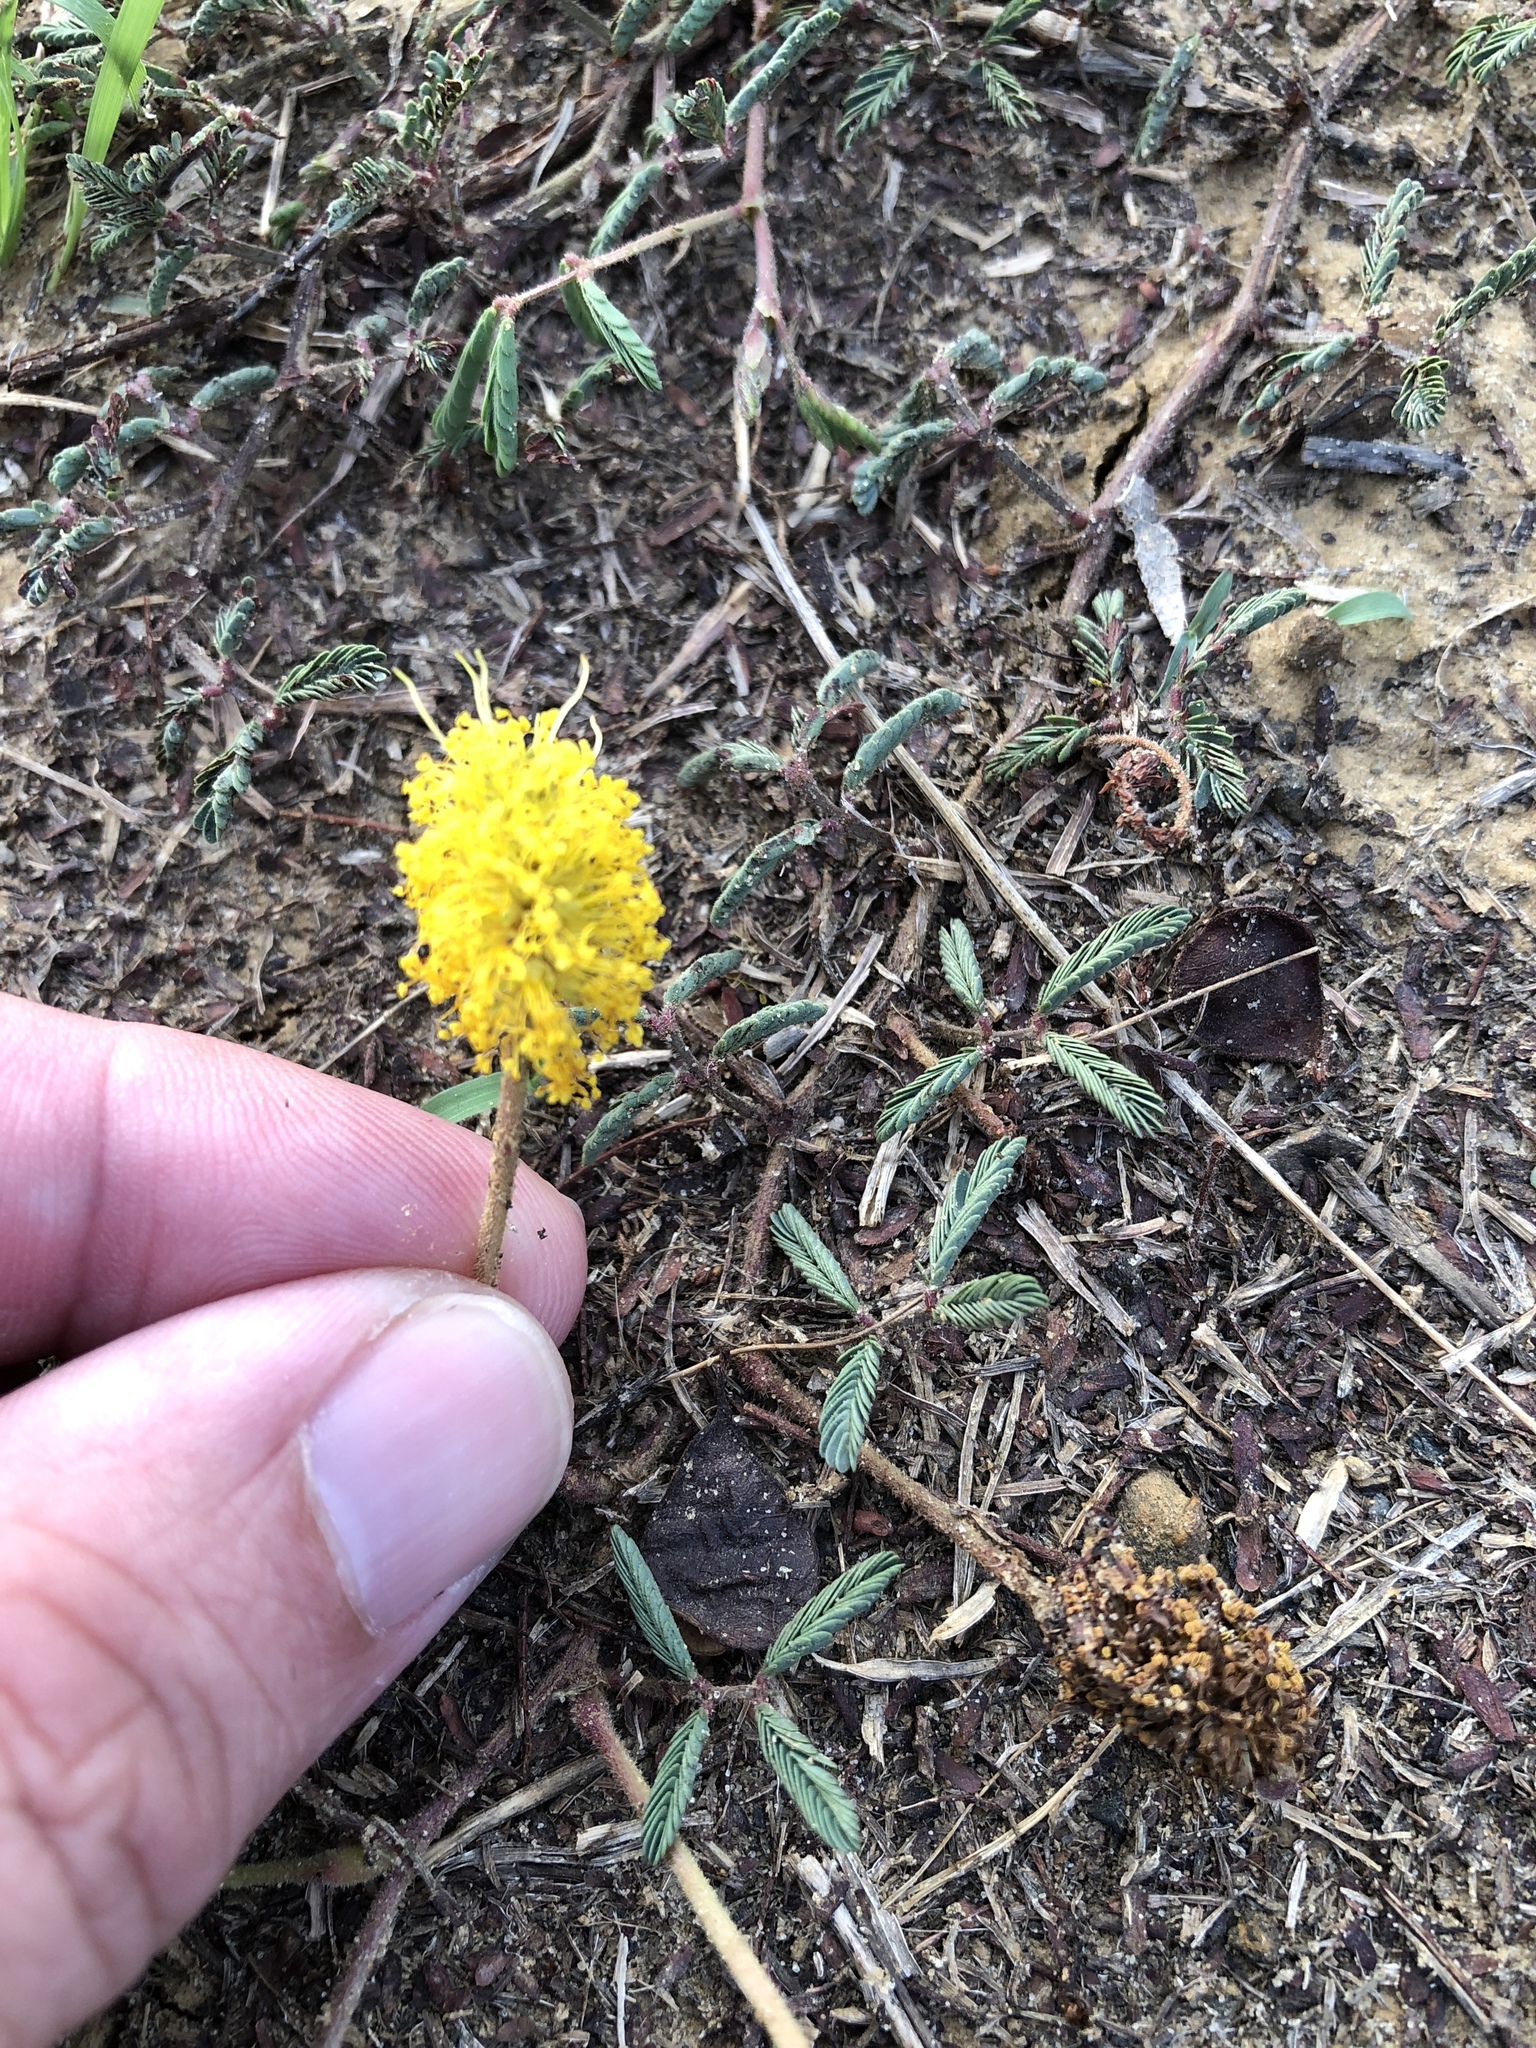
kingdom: Plantae
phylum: Tracheophyta
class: Magnoliopsida
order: Fabales
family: Fabaceae
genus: Neptunia
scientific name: Neptunia lutea
